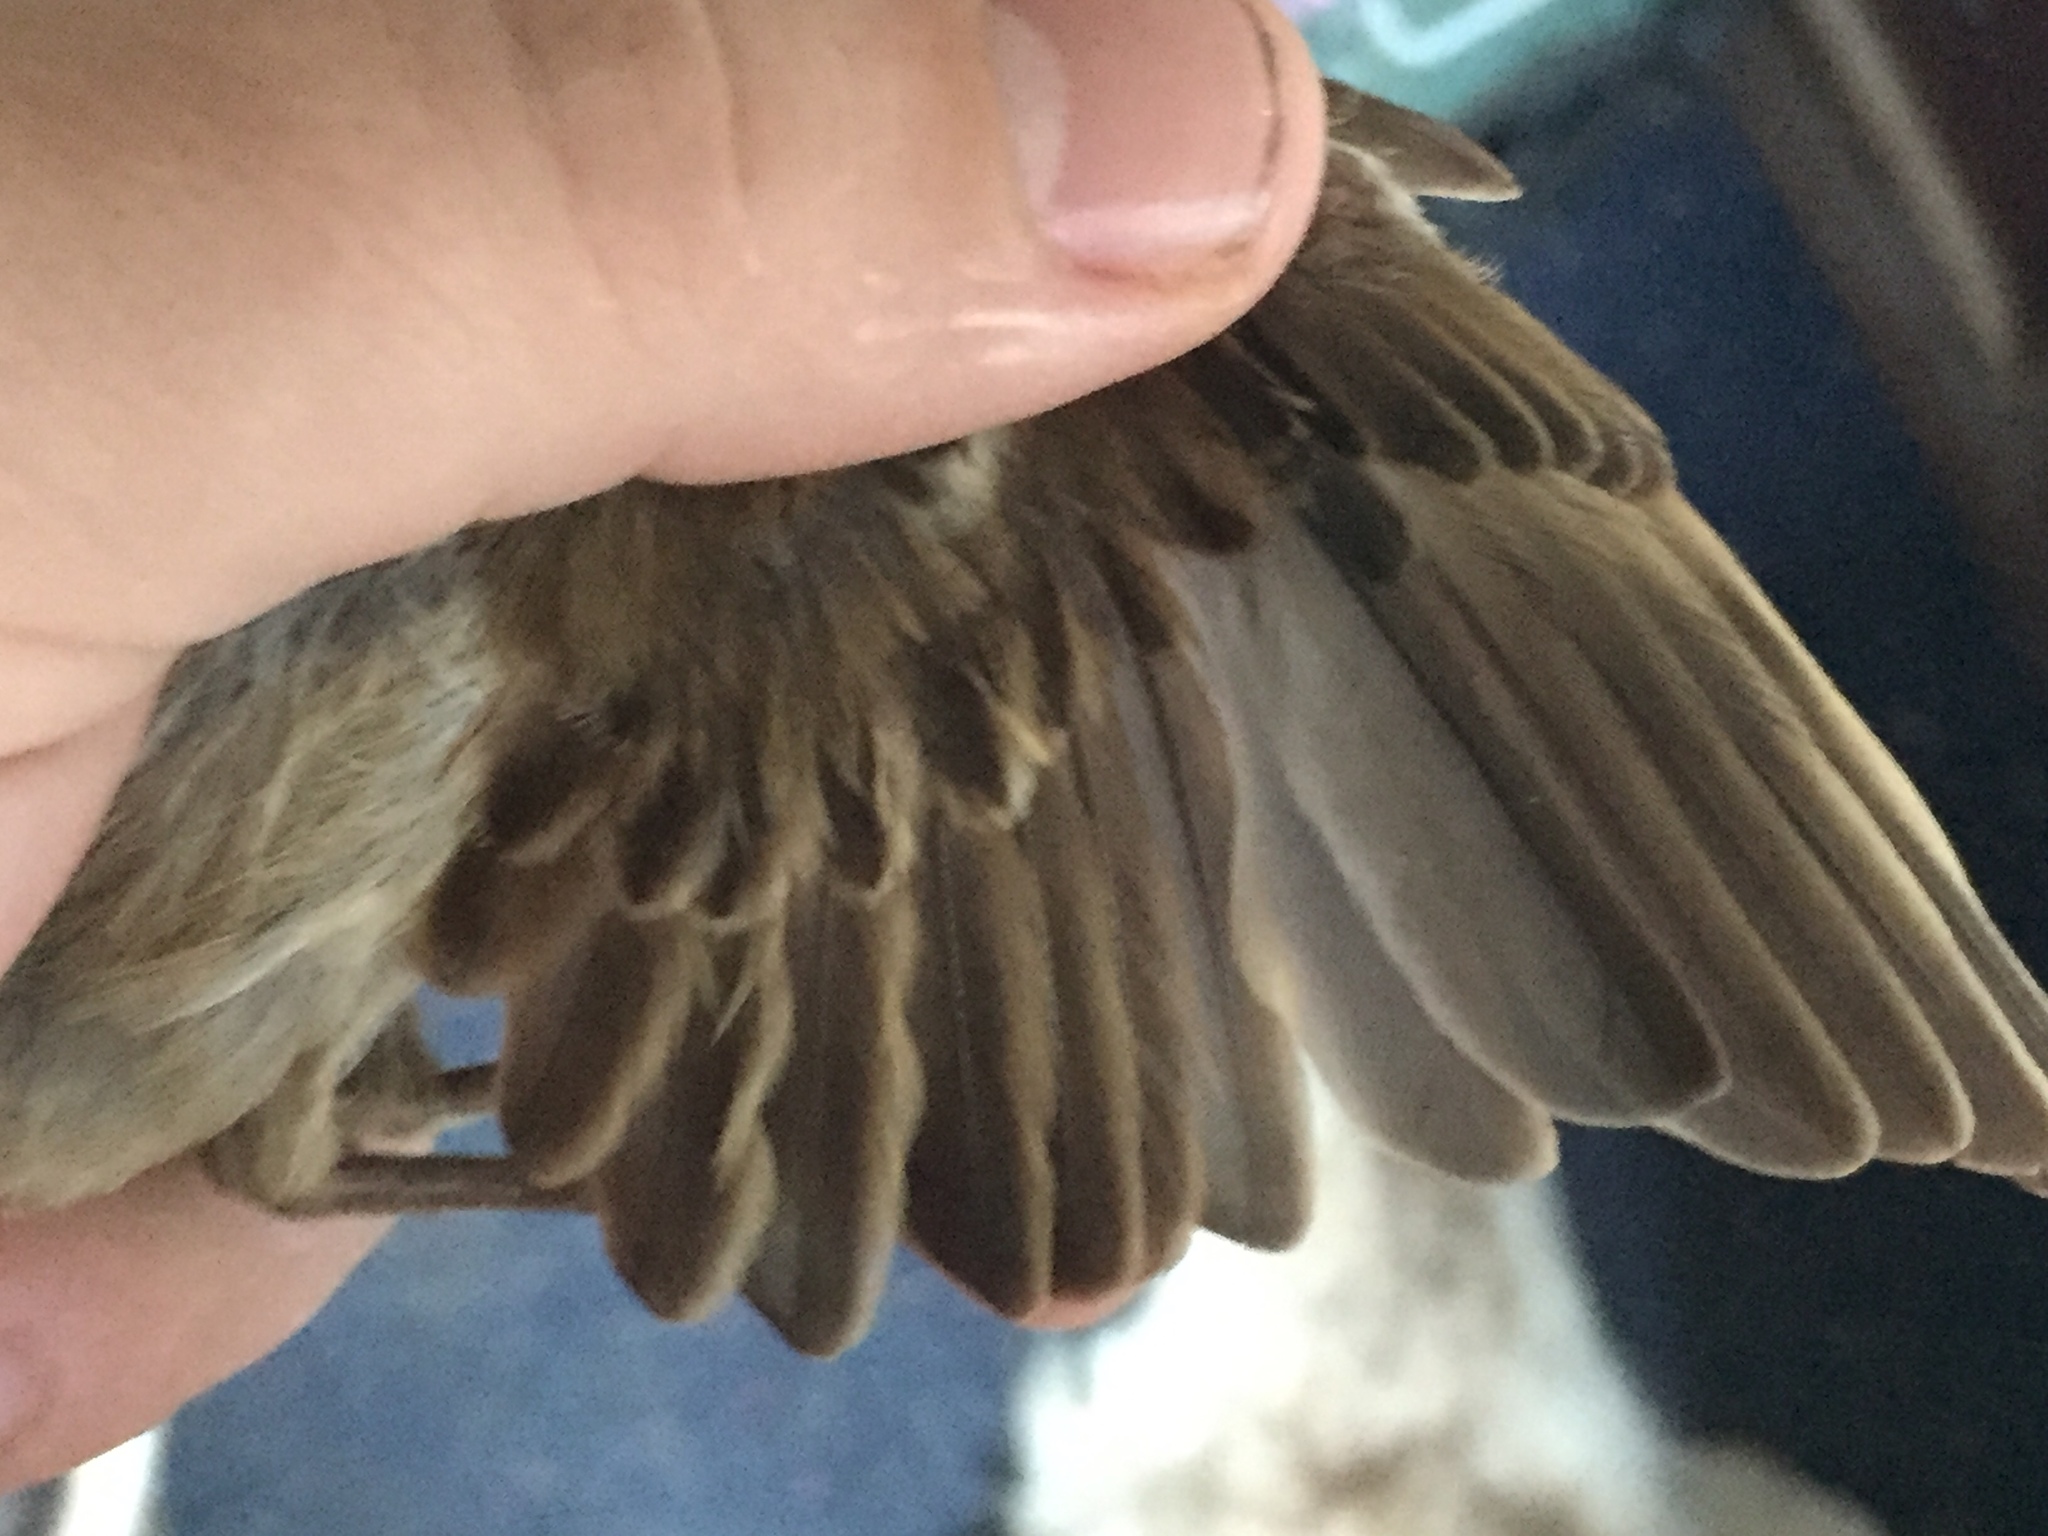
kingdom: Animalia
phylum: Chordata
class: Aves
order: Passeriformes
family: Passeridae
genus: Passer
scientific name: Passer domesticus
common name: House sparrow
